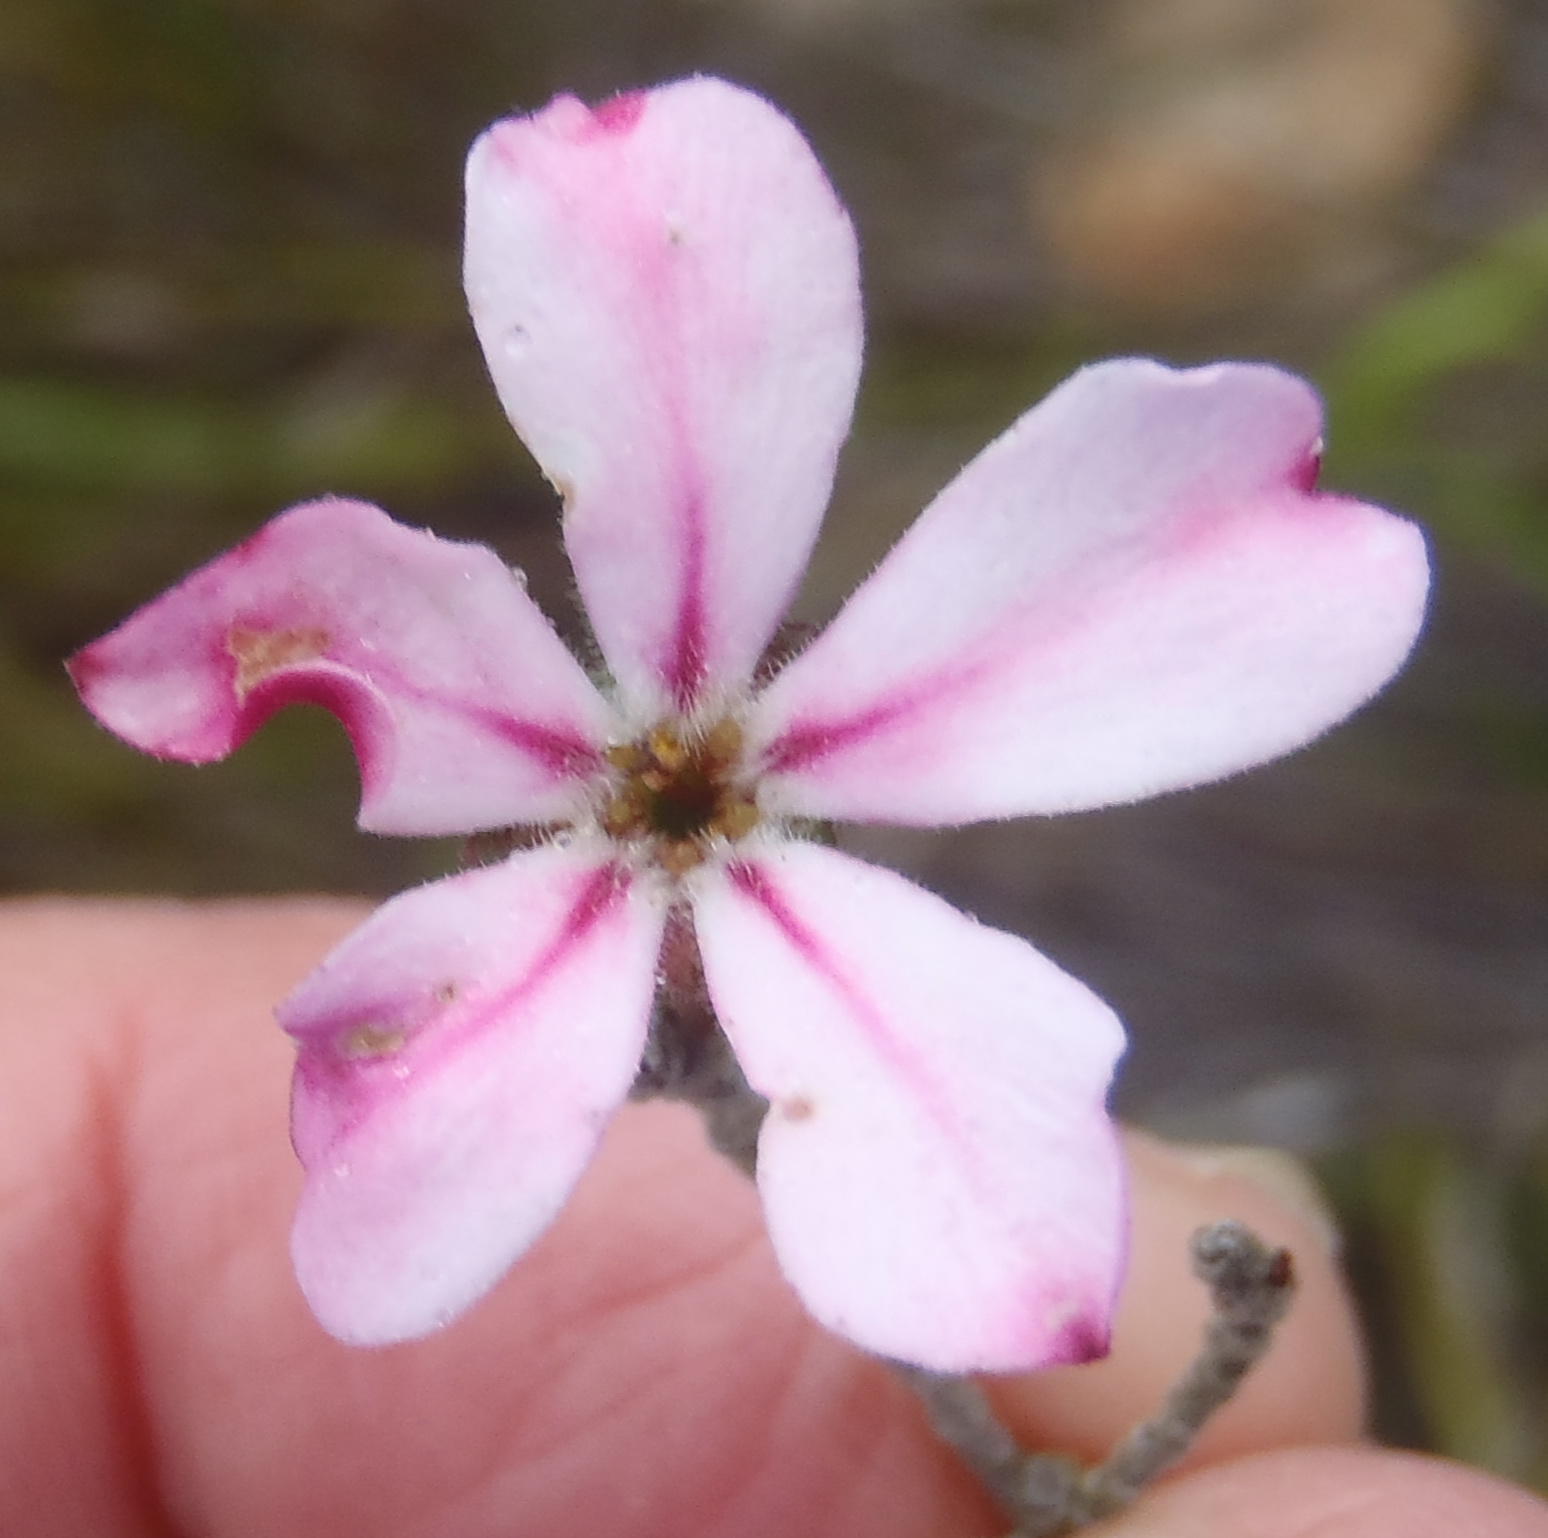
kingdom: Plantae
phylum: Tracheophyta
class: Magnoliopsida
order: Sapindales
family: Rutaceae
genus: Acmadenia
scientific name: Acmadenia tetragona
